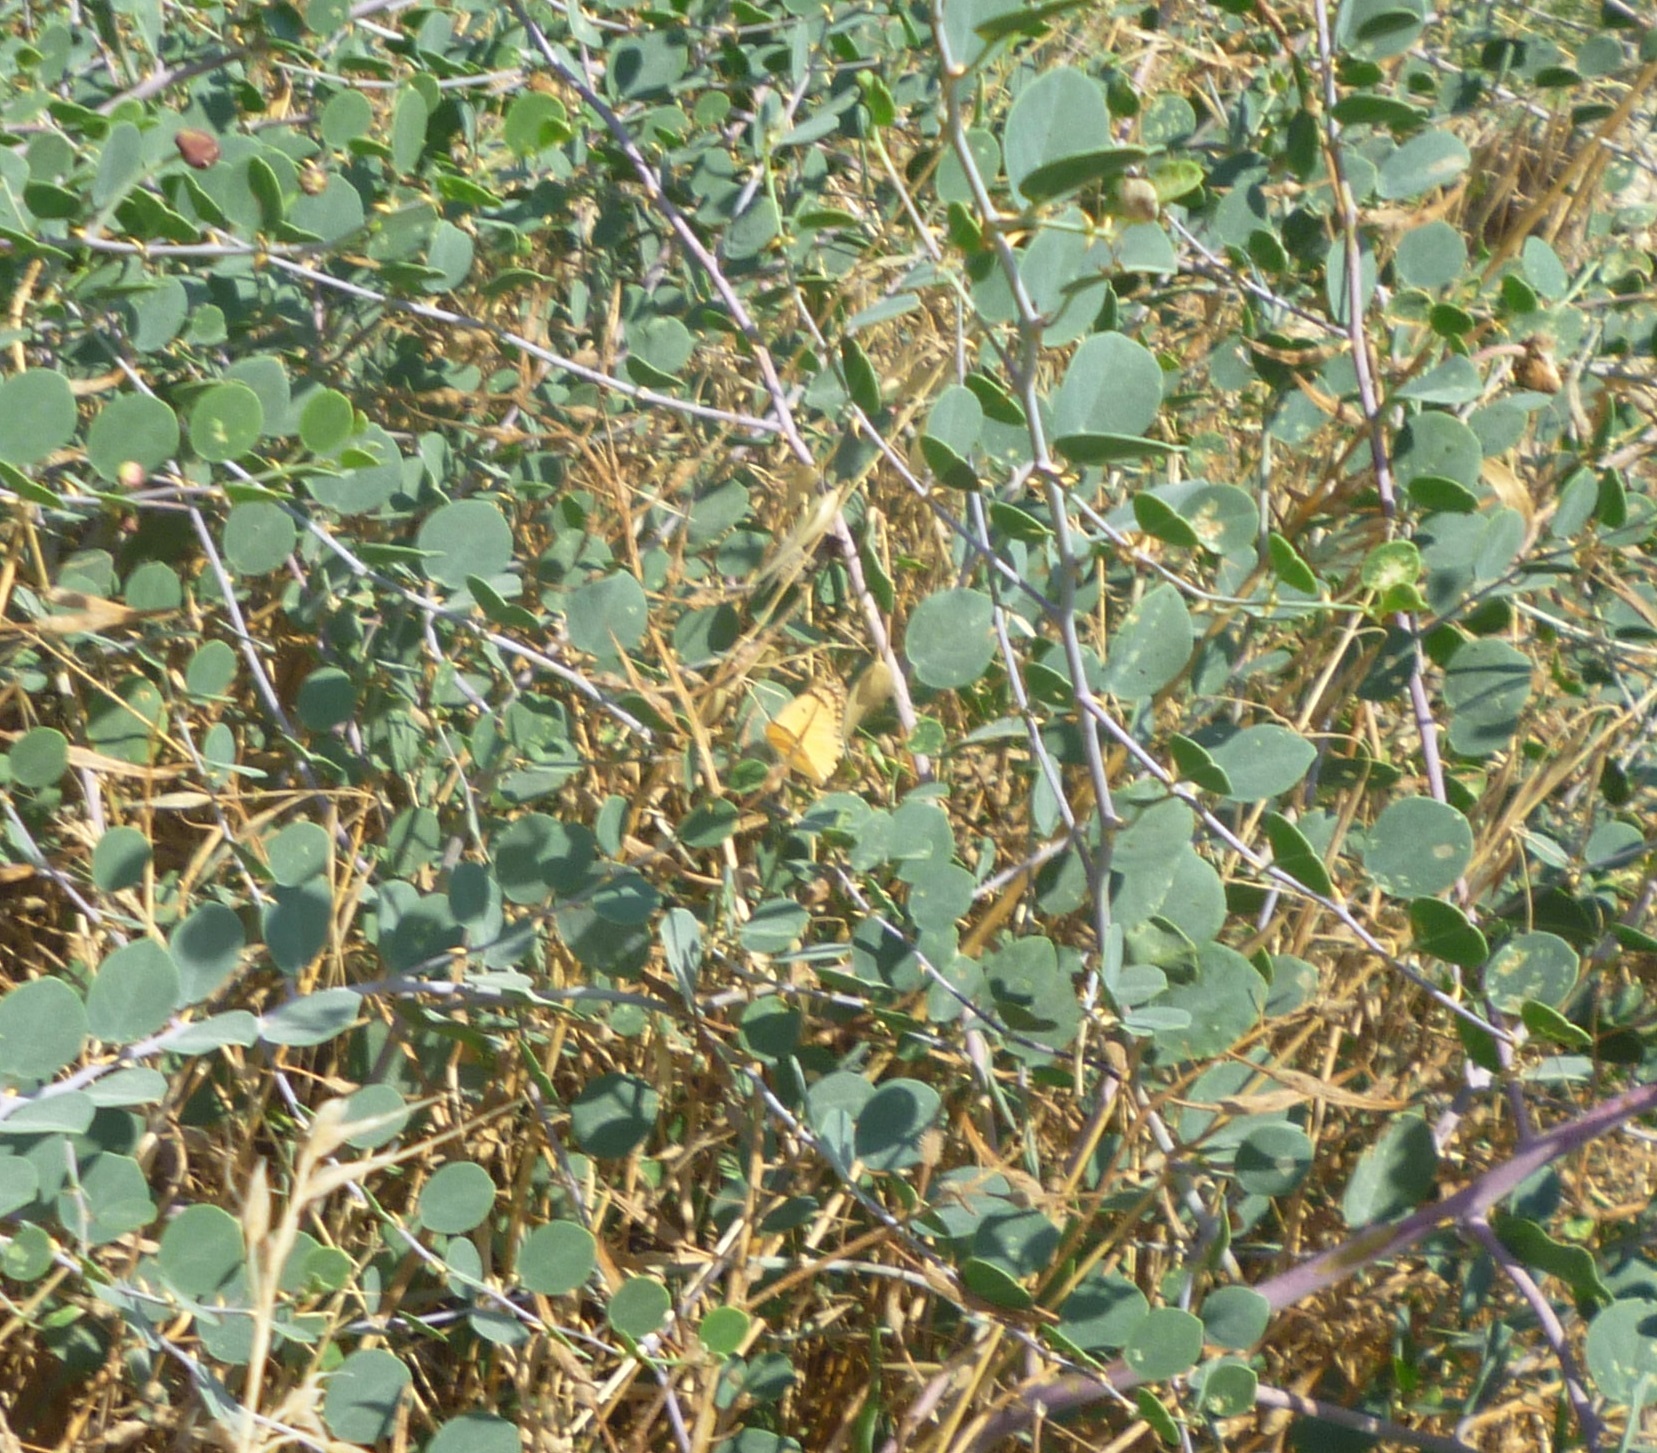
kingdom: Animalia
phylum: Arthropoda
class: Insecta
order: Lepidoptera
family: Pieridae
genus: Colotis
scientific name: Colotis fausta
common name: Large salmon arab
